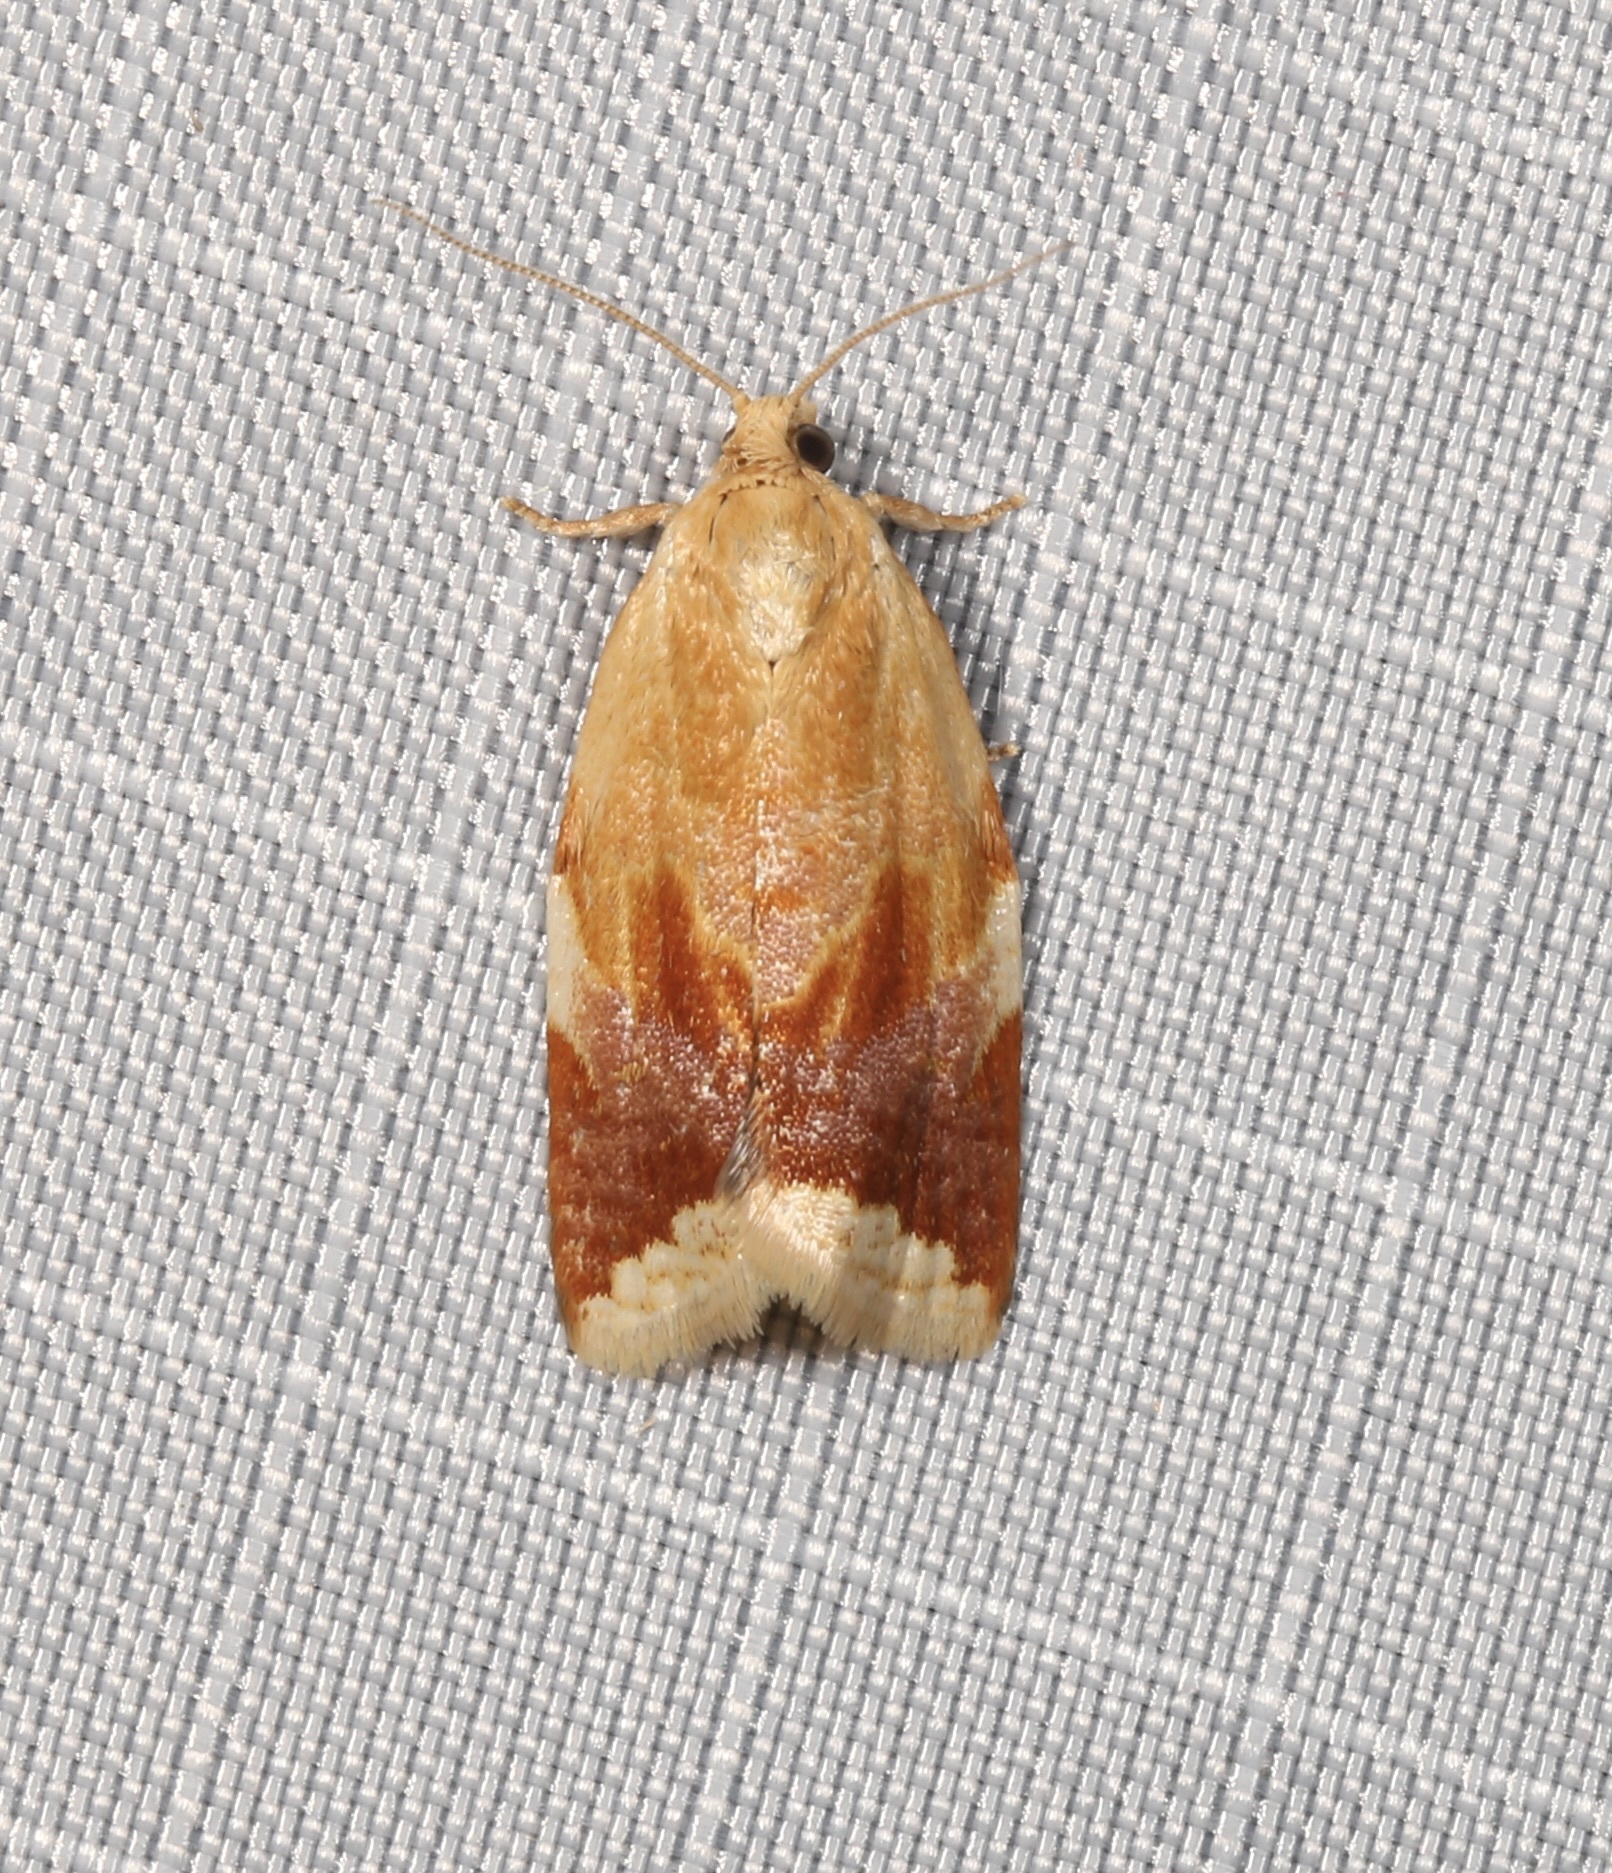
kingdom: Animalia
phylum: Arthropoda
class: Insecta
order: Lepidoptera
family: Tortricidae
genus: Clepsis
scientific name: Clepsis persicana
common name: White triangle tortrix
